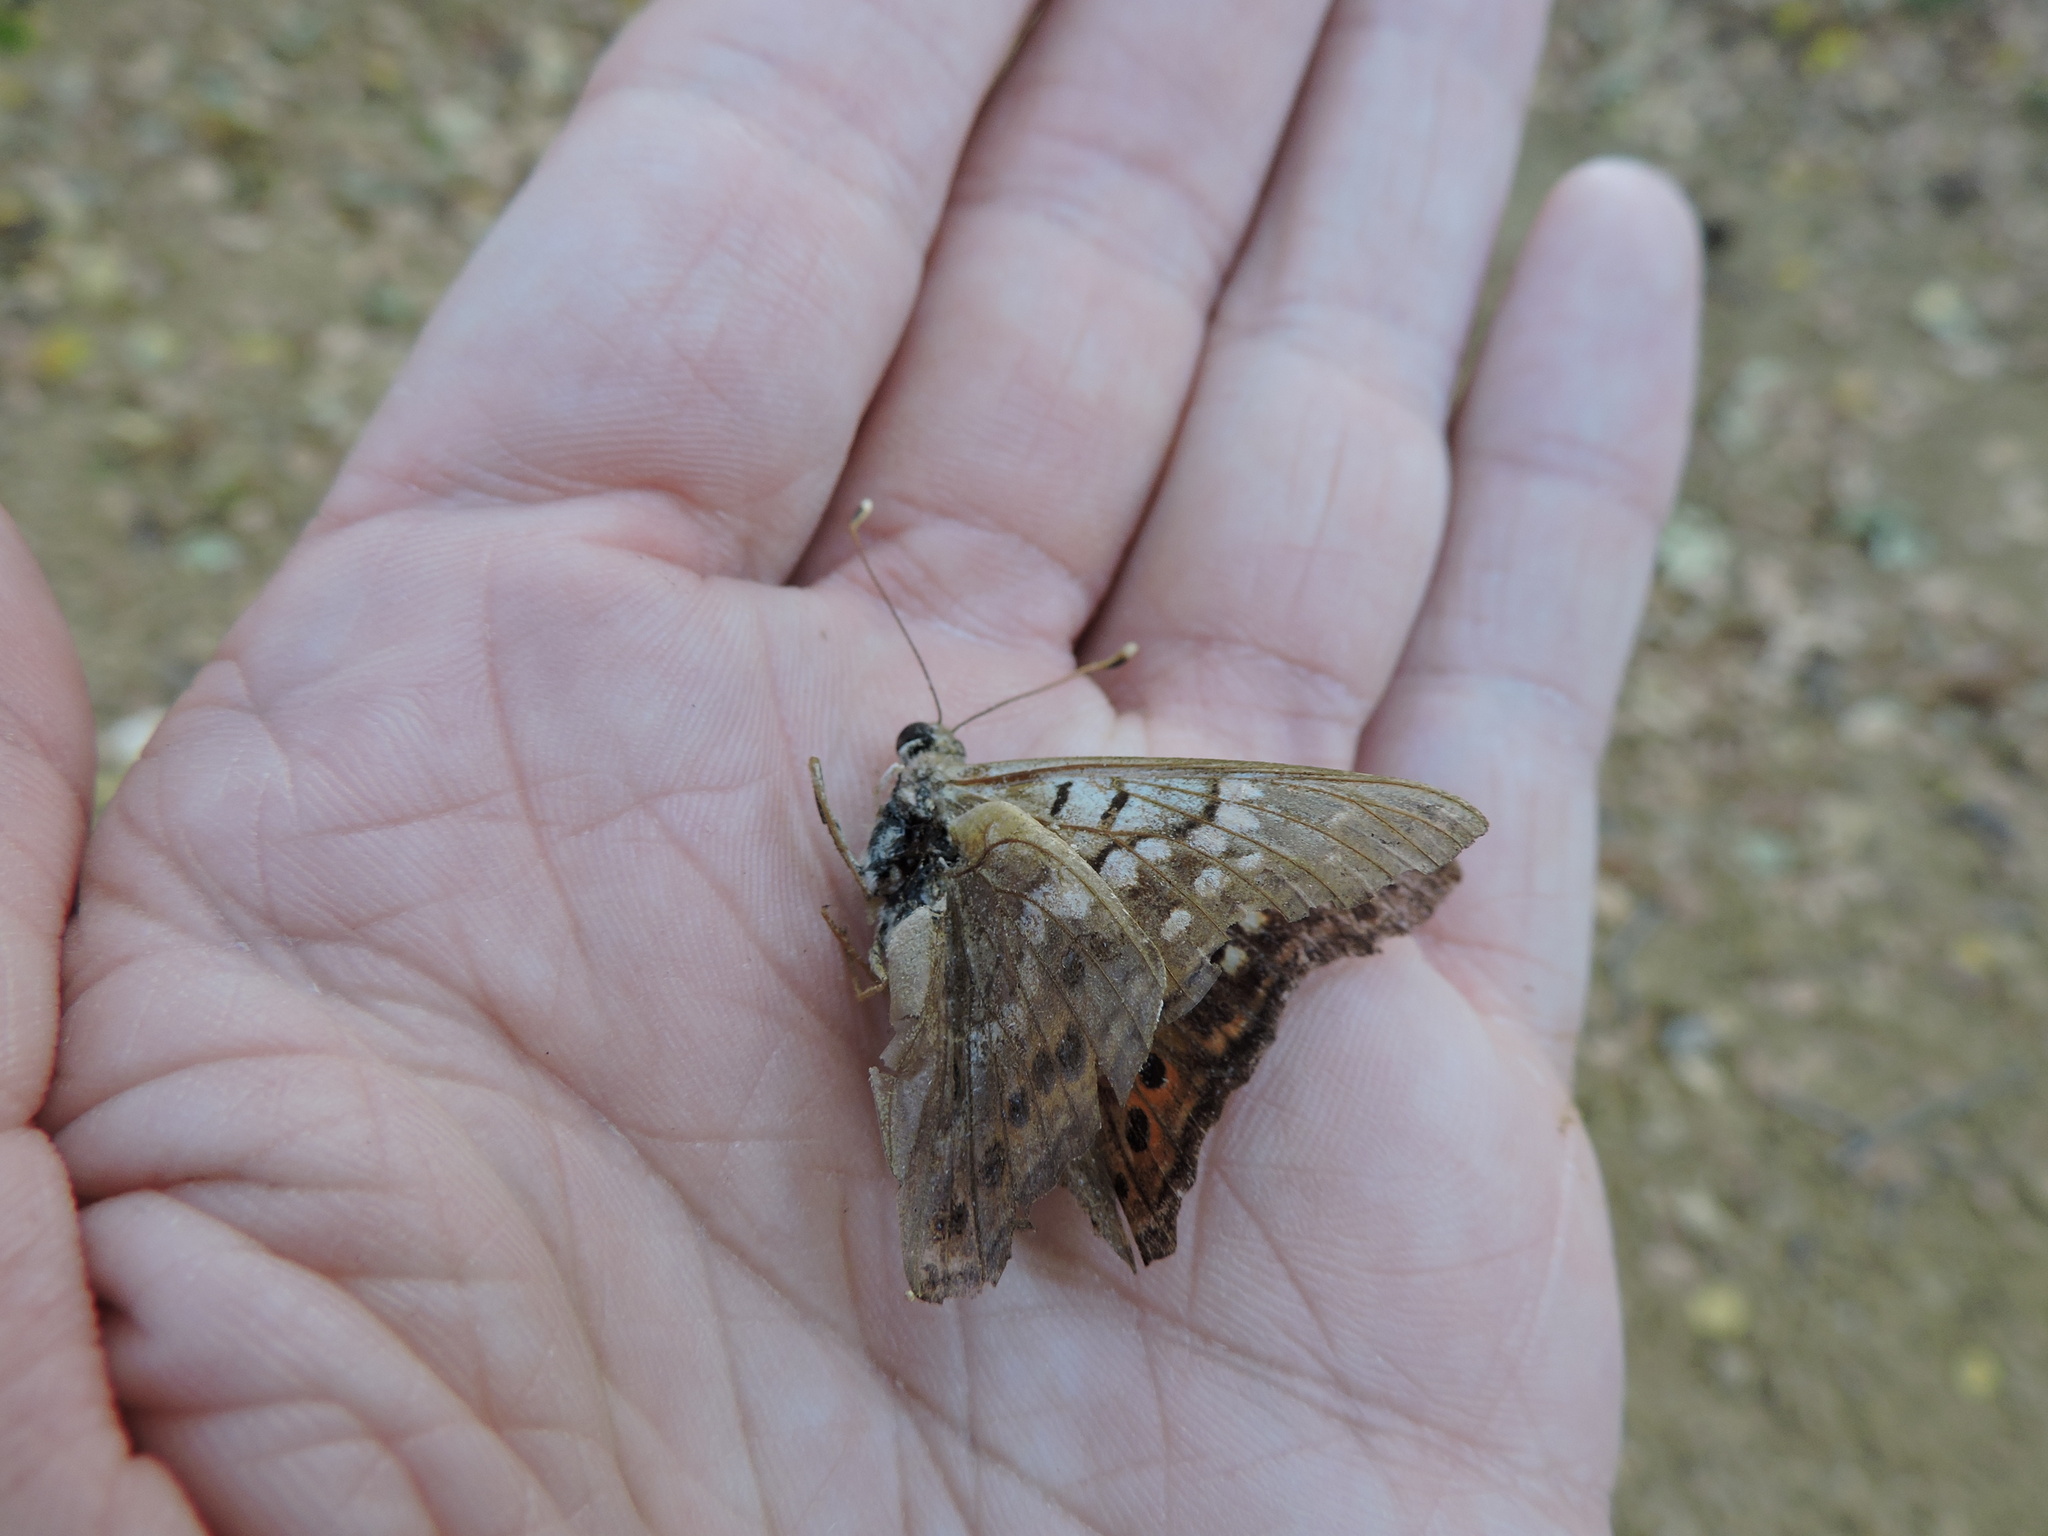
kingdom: Animalia
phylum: Arthropoda
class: Insecta
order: Lepidoptera
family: Nymphalidae
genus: Asterocampa
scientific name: Asterocampa clyton
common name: Tawny emperor
